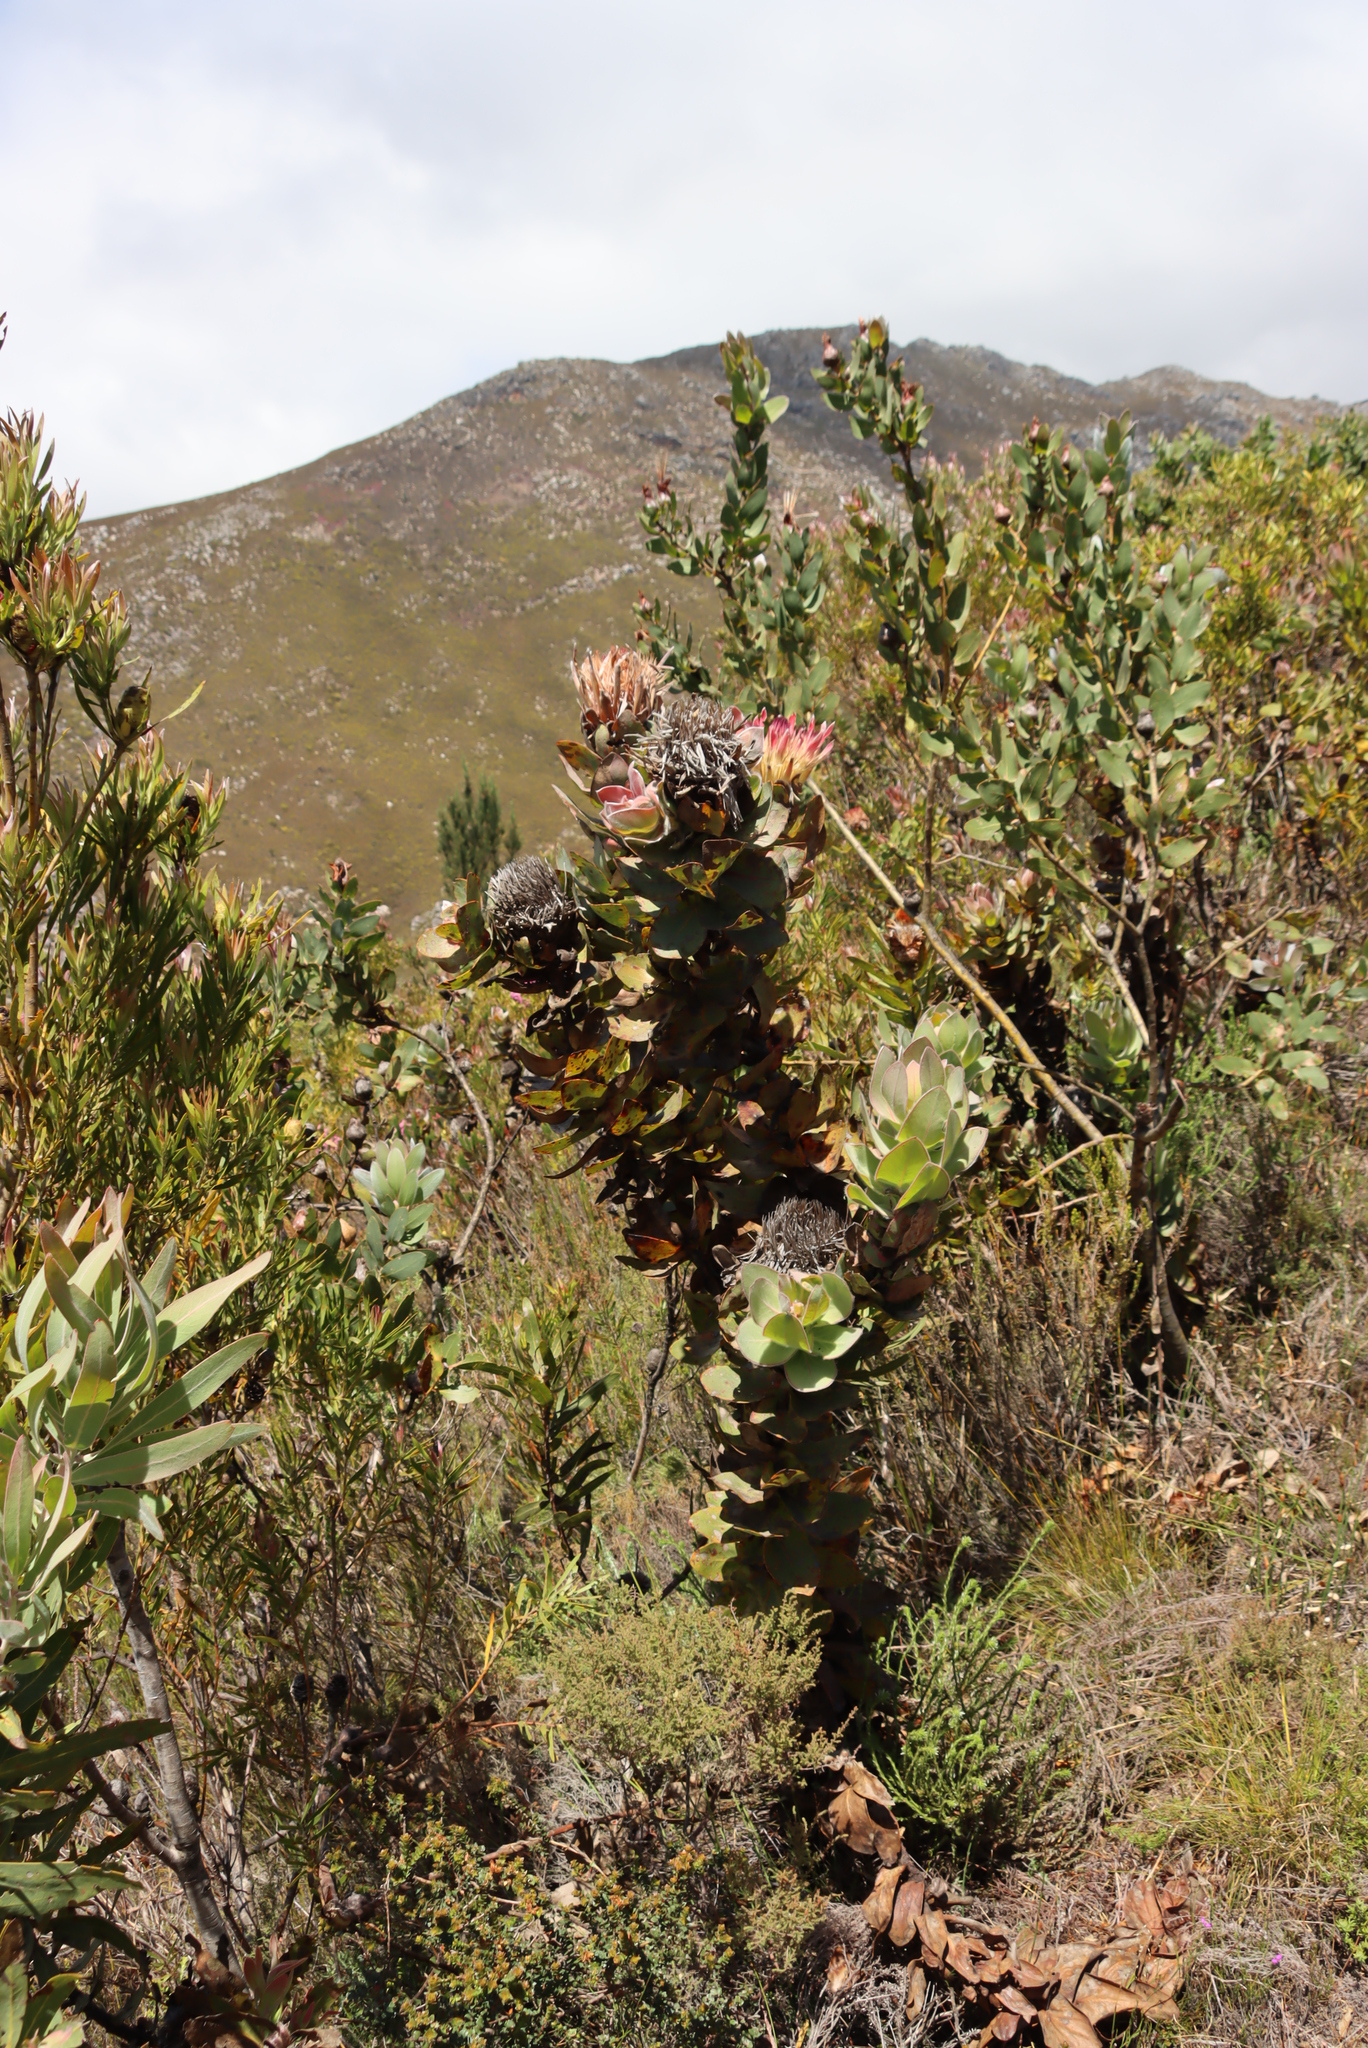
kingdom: Plantae
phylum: Tracheophyta
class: Magnoliopsida
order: Proteales
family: Proteaceae
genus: Protea
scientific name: Protea eximia
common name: Broad-leaved sugarbush
